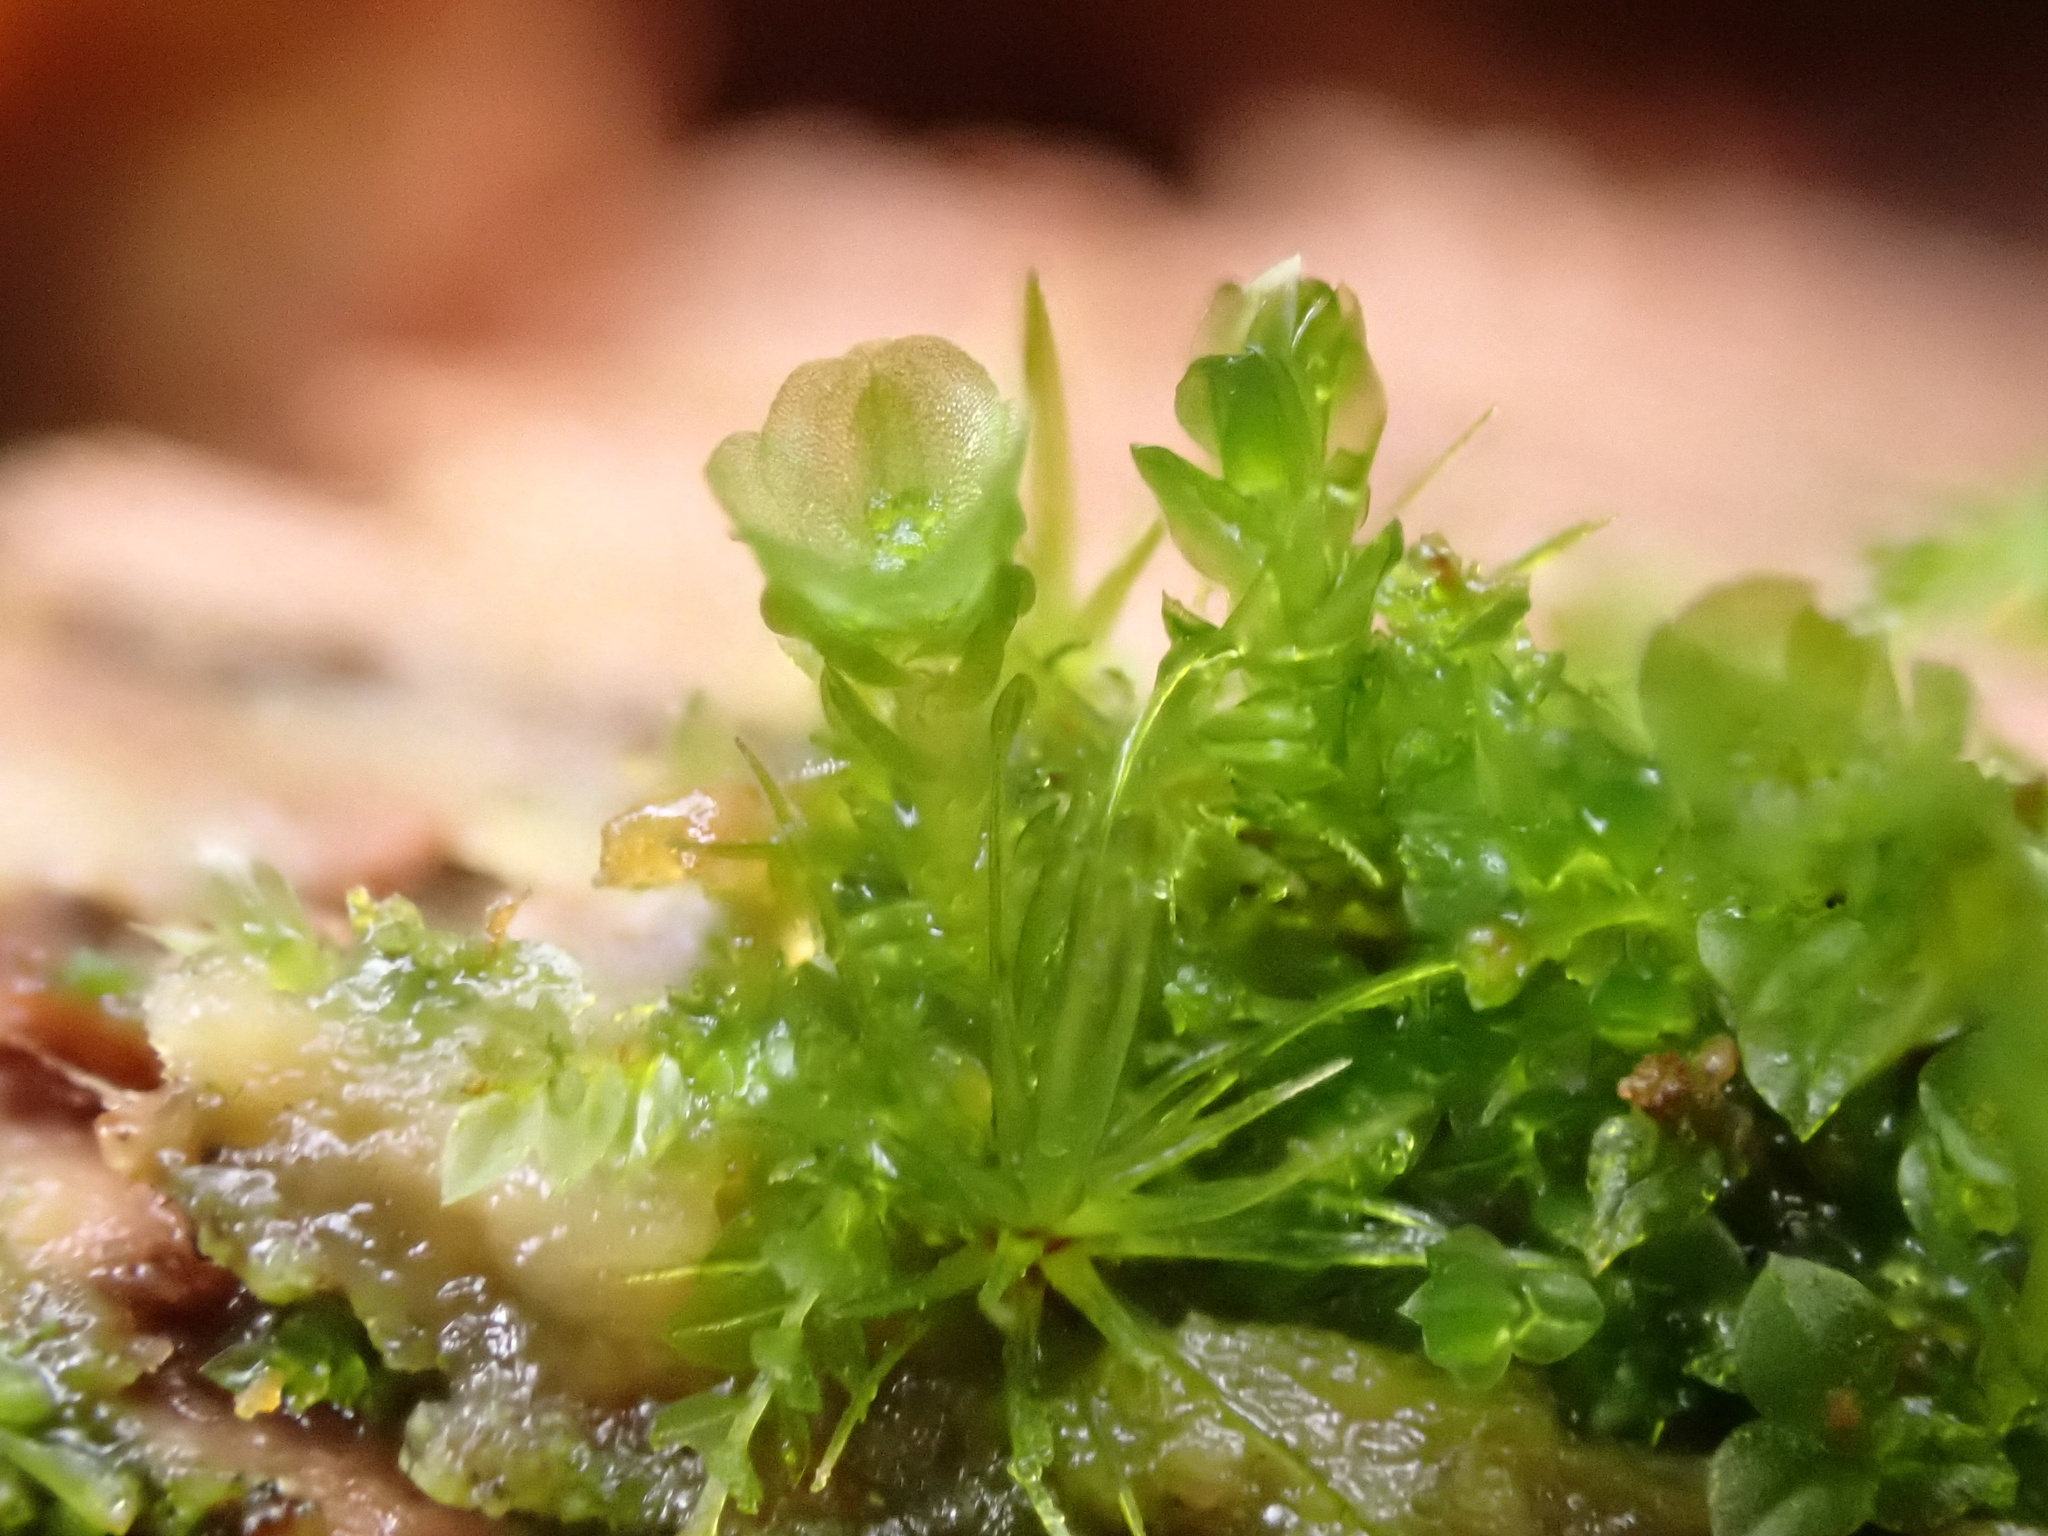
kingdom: Plantae
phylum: Bryophyta
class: Polytrichopsida
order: Tetraphidales
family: Tetraphidaceae
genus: Tetraphis
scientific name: Tetraphis pellucida
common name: Common four-toothed moss
